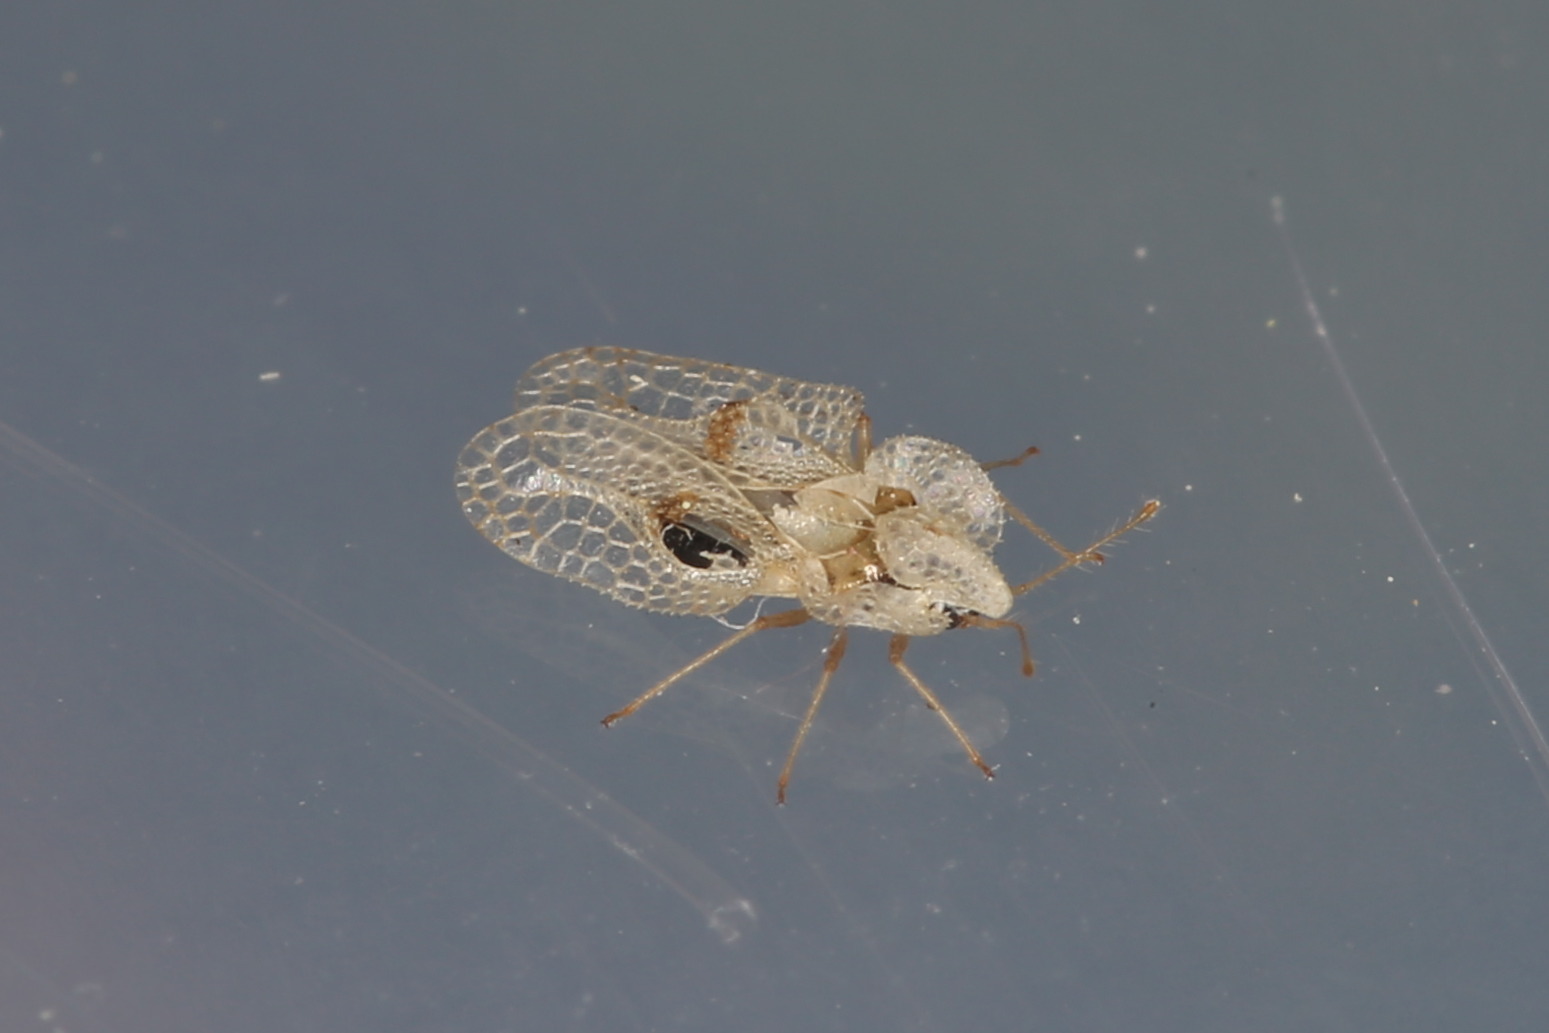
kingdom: Animalia
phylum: Arthropoda
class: Insecta
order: Hemiptera
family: Tingidae
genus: Corythucha
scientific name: Corythucha ciliata
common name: Sycamore lace bug
